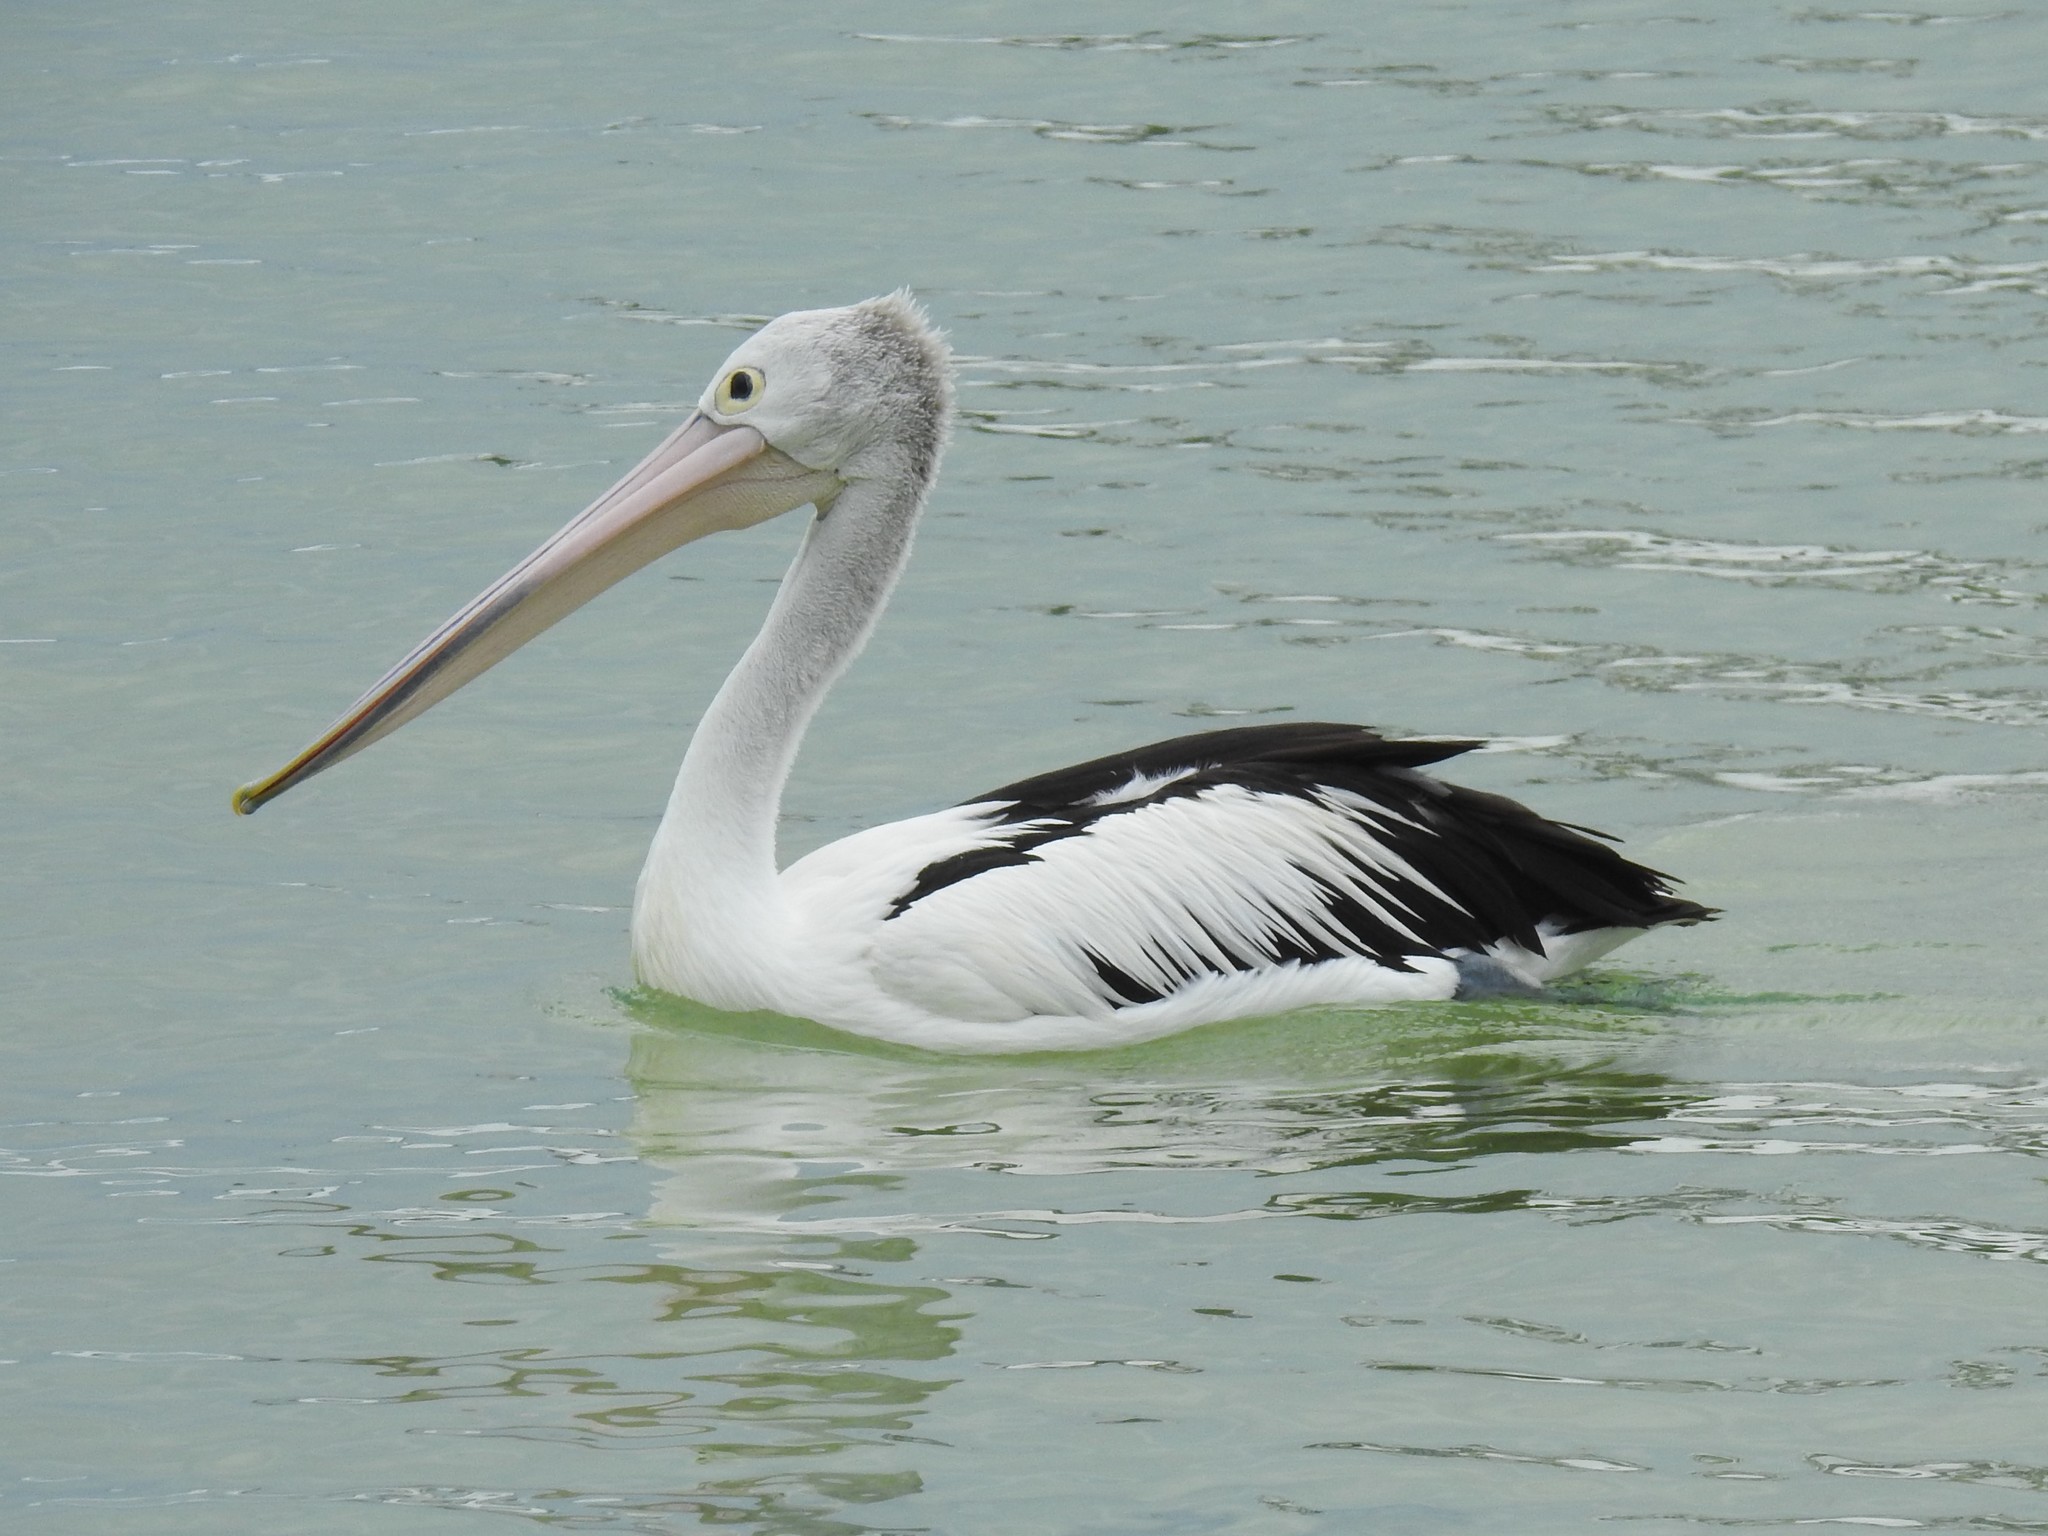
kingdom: Animalia
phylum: Chordata
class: Aves
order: Pelecaniformes
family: Pelecanidae
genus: Pelecanus
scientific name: Pelecanus conspicillatus
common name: Australian pelican
